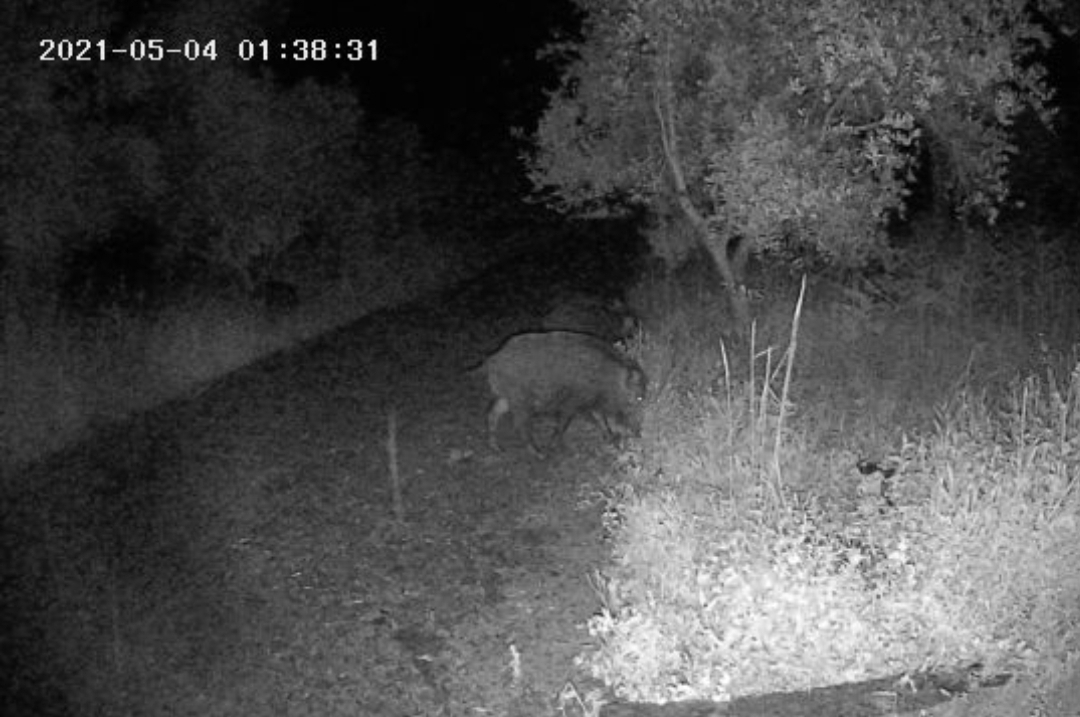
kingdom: Animalia
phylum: Chordata
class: Mammalia
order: Artiodactyla
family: Suidae
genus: Sus
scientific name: Sus scrofa
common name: Wild boar
